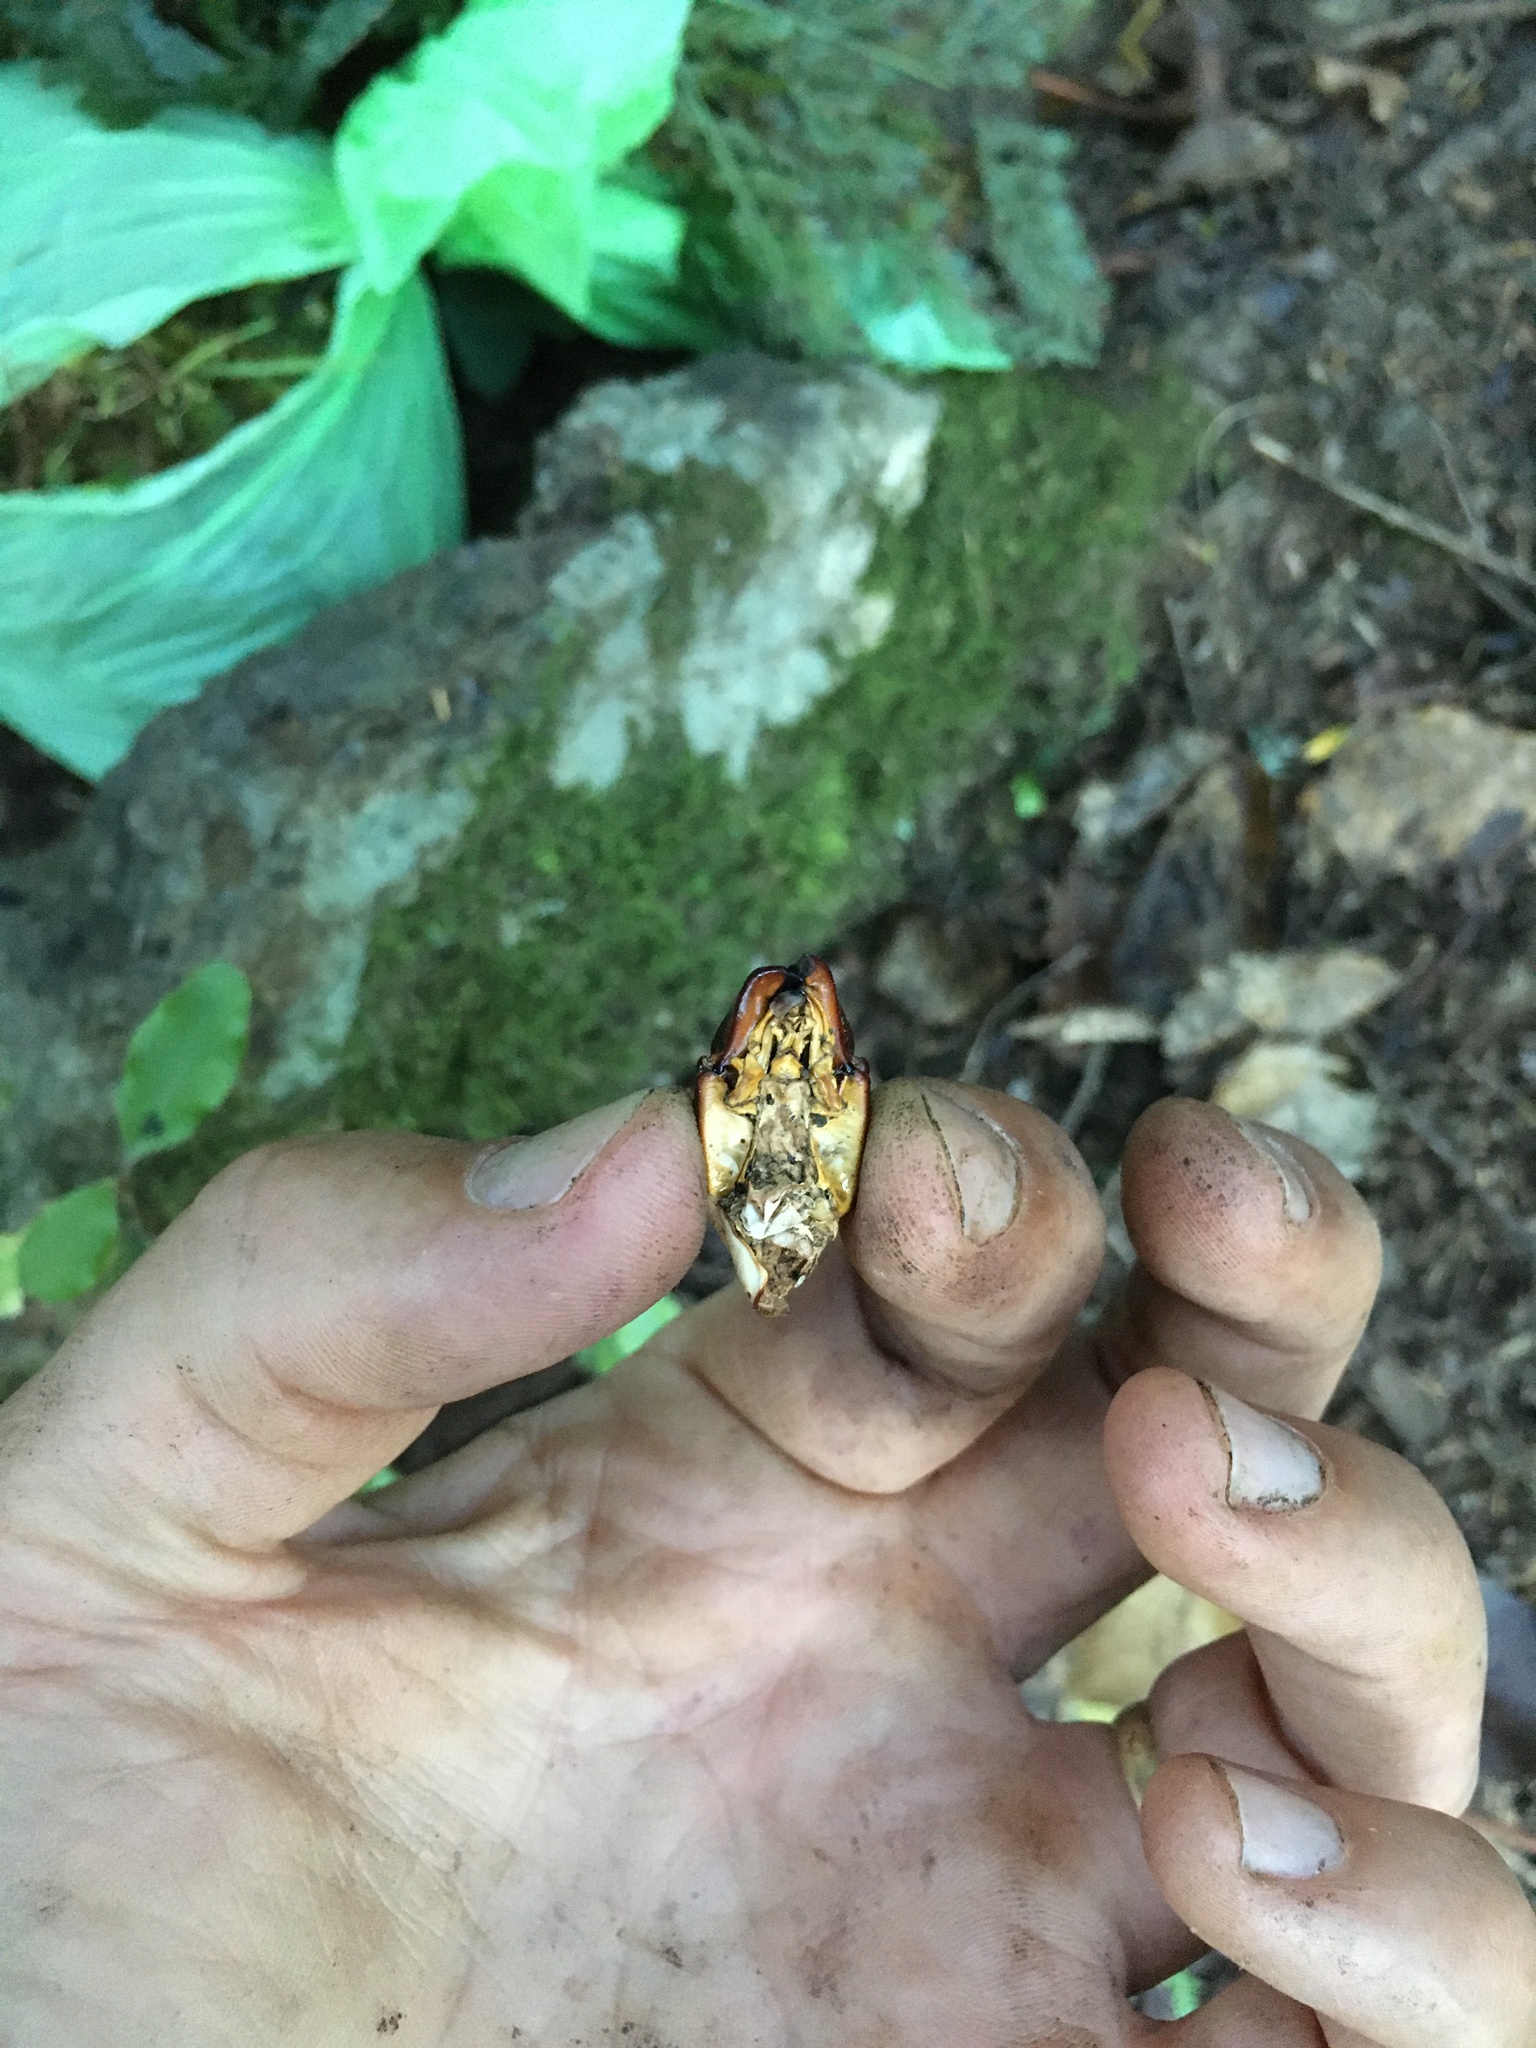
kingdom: Animalia
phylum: Arthropoda
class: Insecta
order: Orthoptera
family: Anostostomatidae
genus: Hemideina
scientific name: Hemideina femorata
